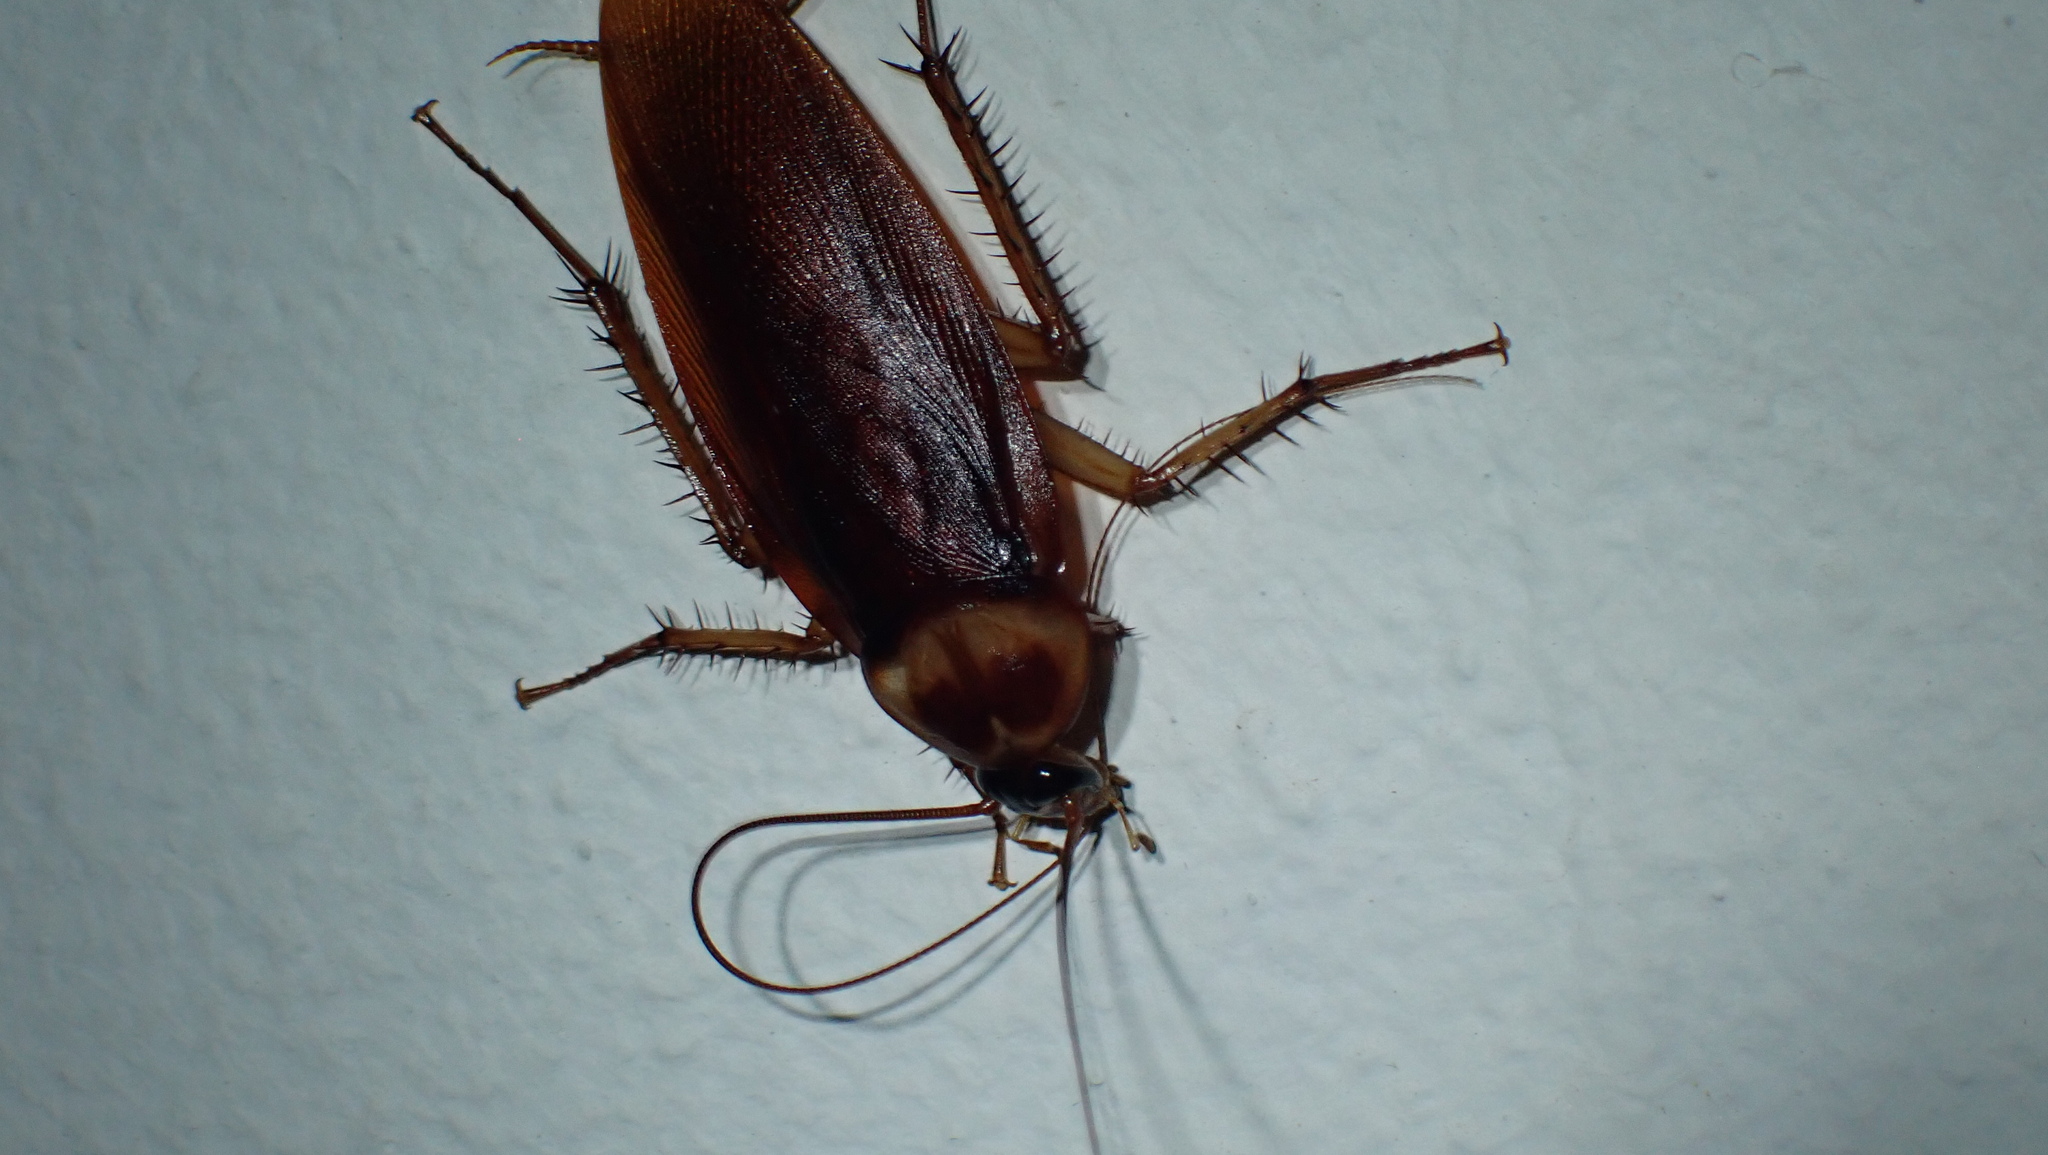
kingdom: Animalia
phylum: Arthropoda
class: Insecta
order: Blattodea
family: Blattidae
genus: Periplaneta
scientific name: Periplaneta americana
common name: American cockroach
